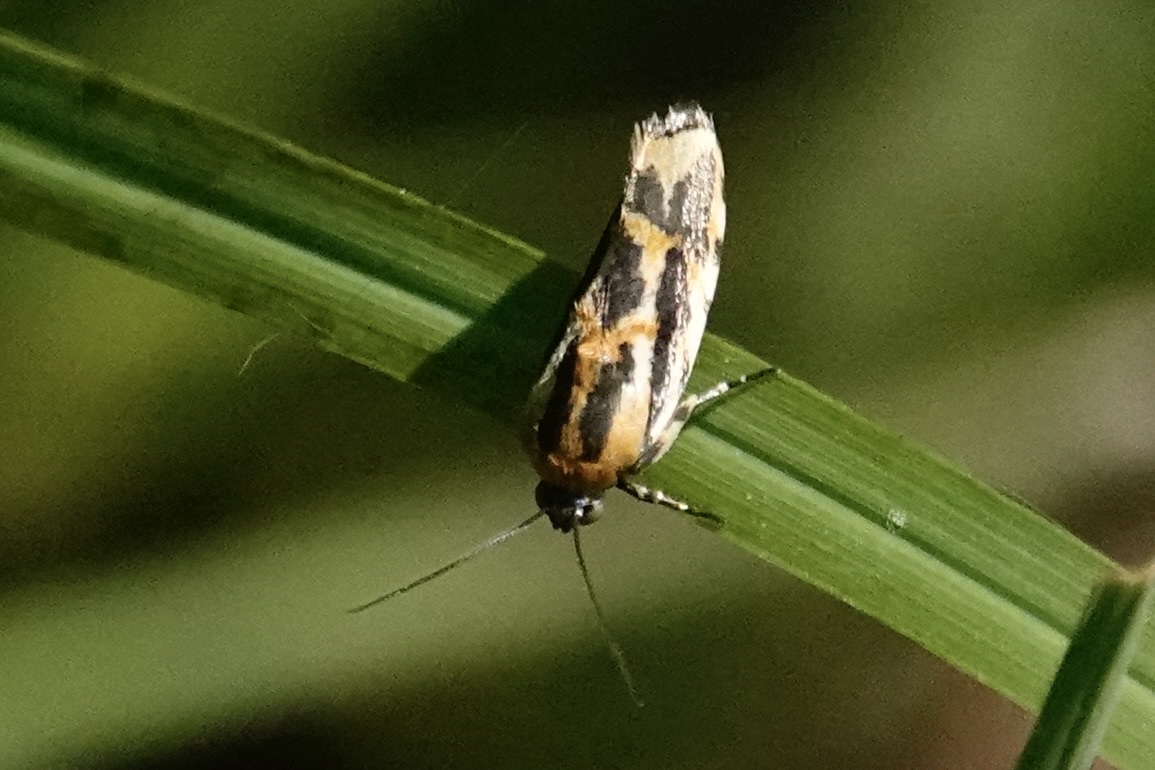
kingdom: Animalia
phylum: Arthropoda
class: Insecta
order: Lepidoptera
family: Noctuidae
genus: Acontia
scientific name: Acontia leo
